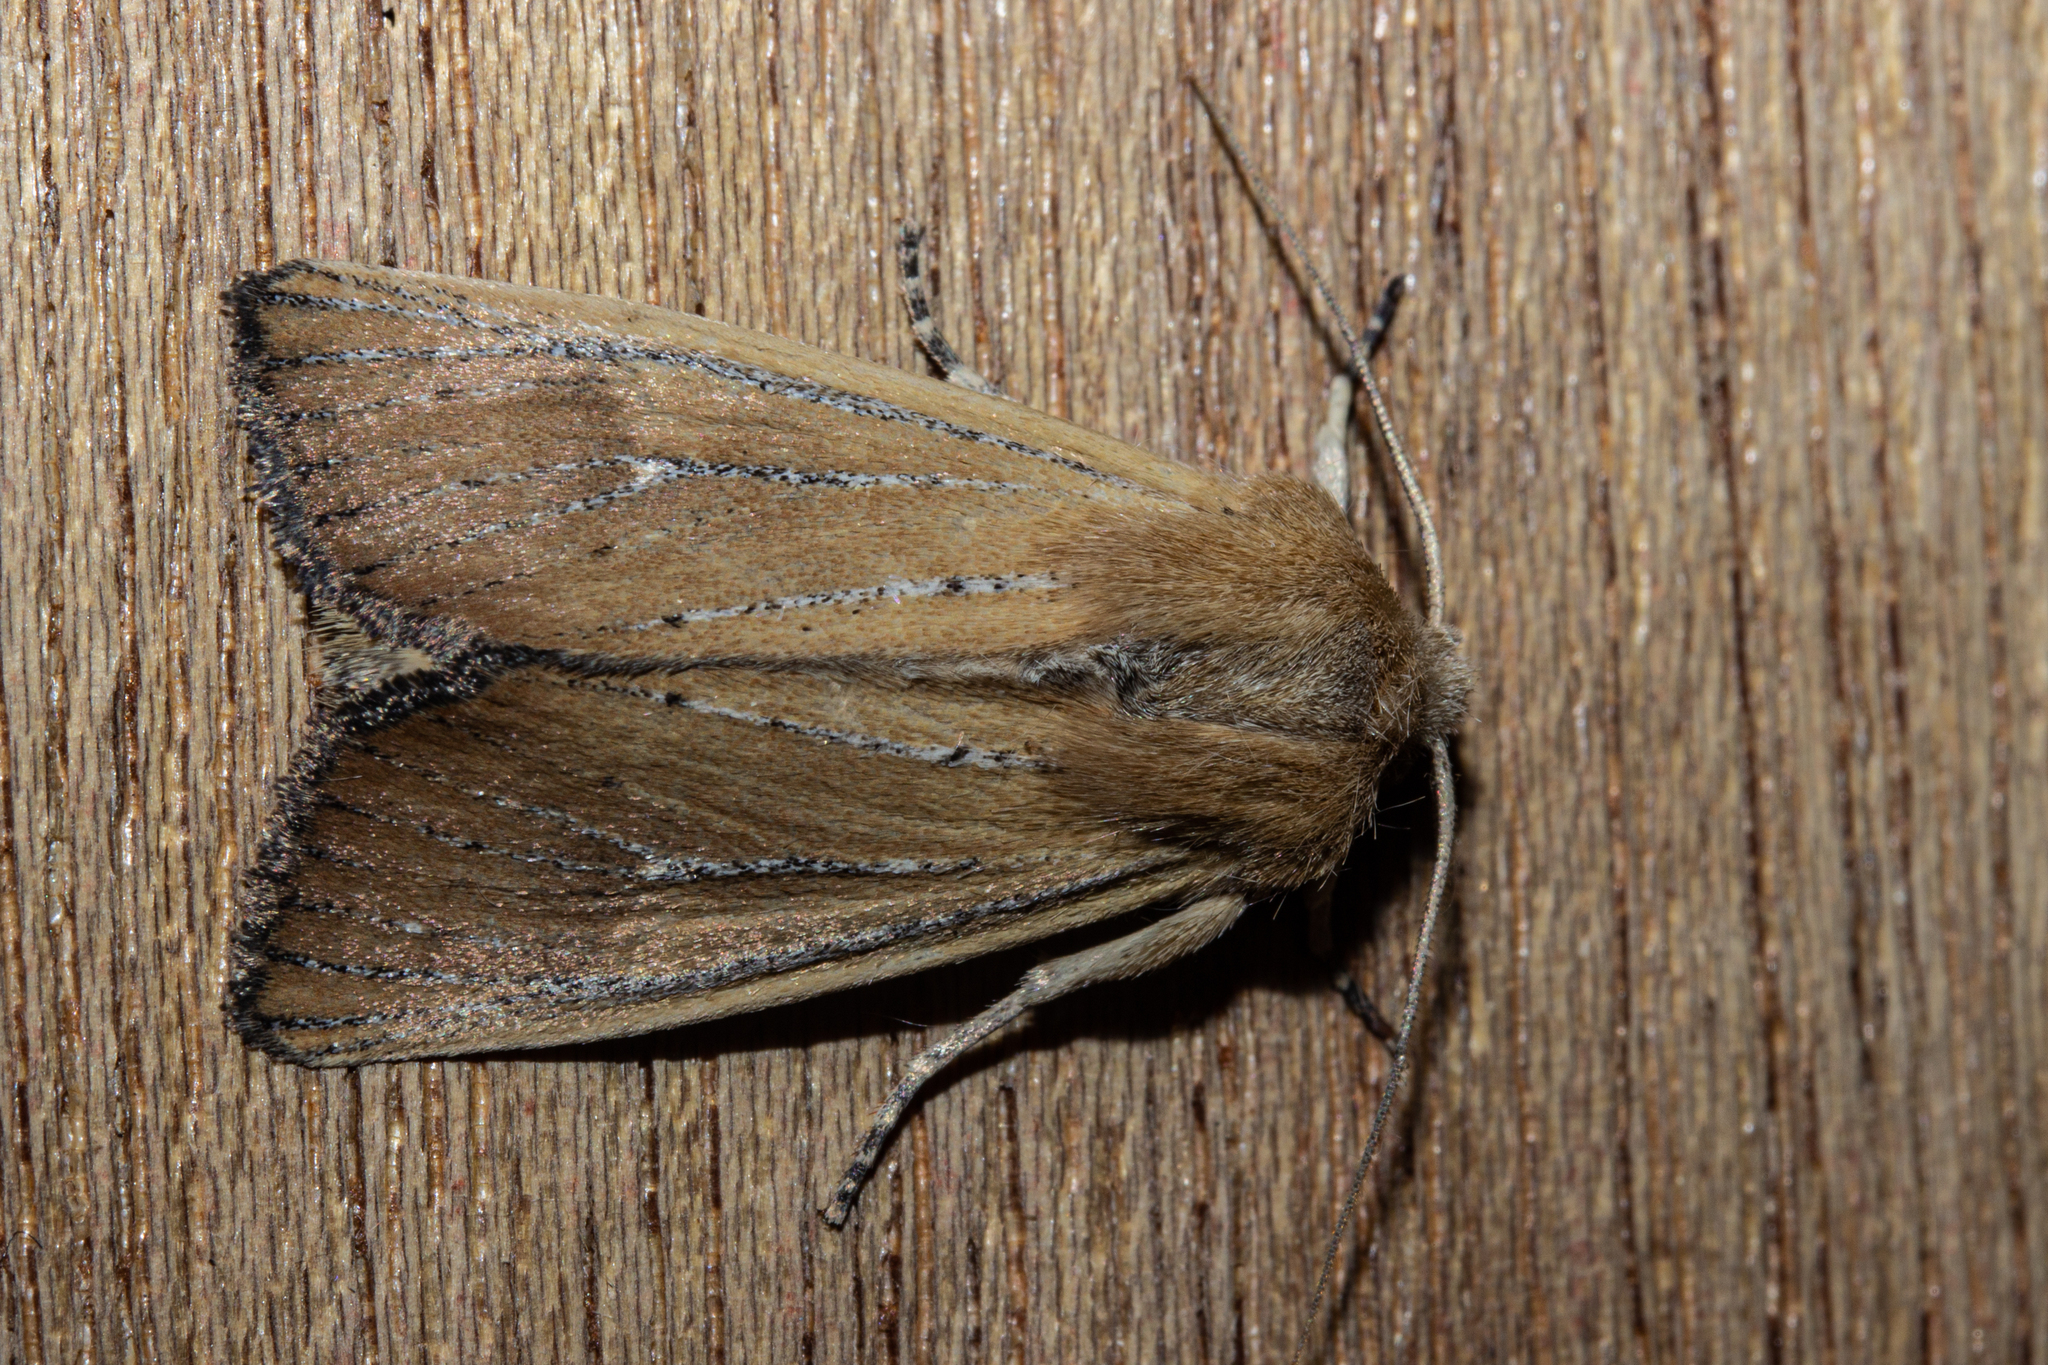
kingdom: Animalia
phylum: Arthropoda
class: Insecta
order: Lepidoptera
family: Noctuidae
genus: Ichneutica
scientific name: Ichneutica blenheimensis
